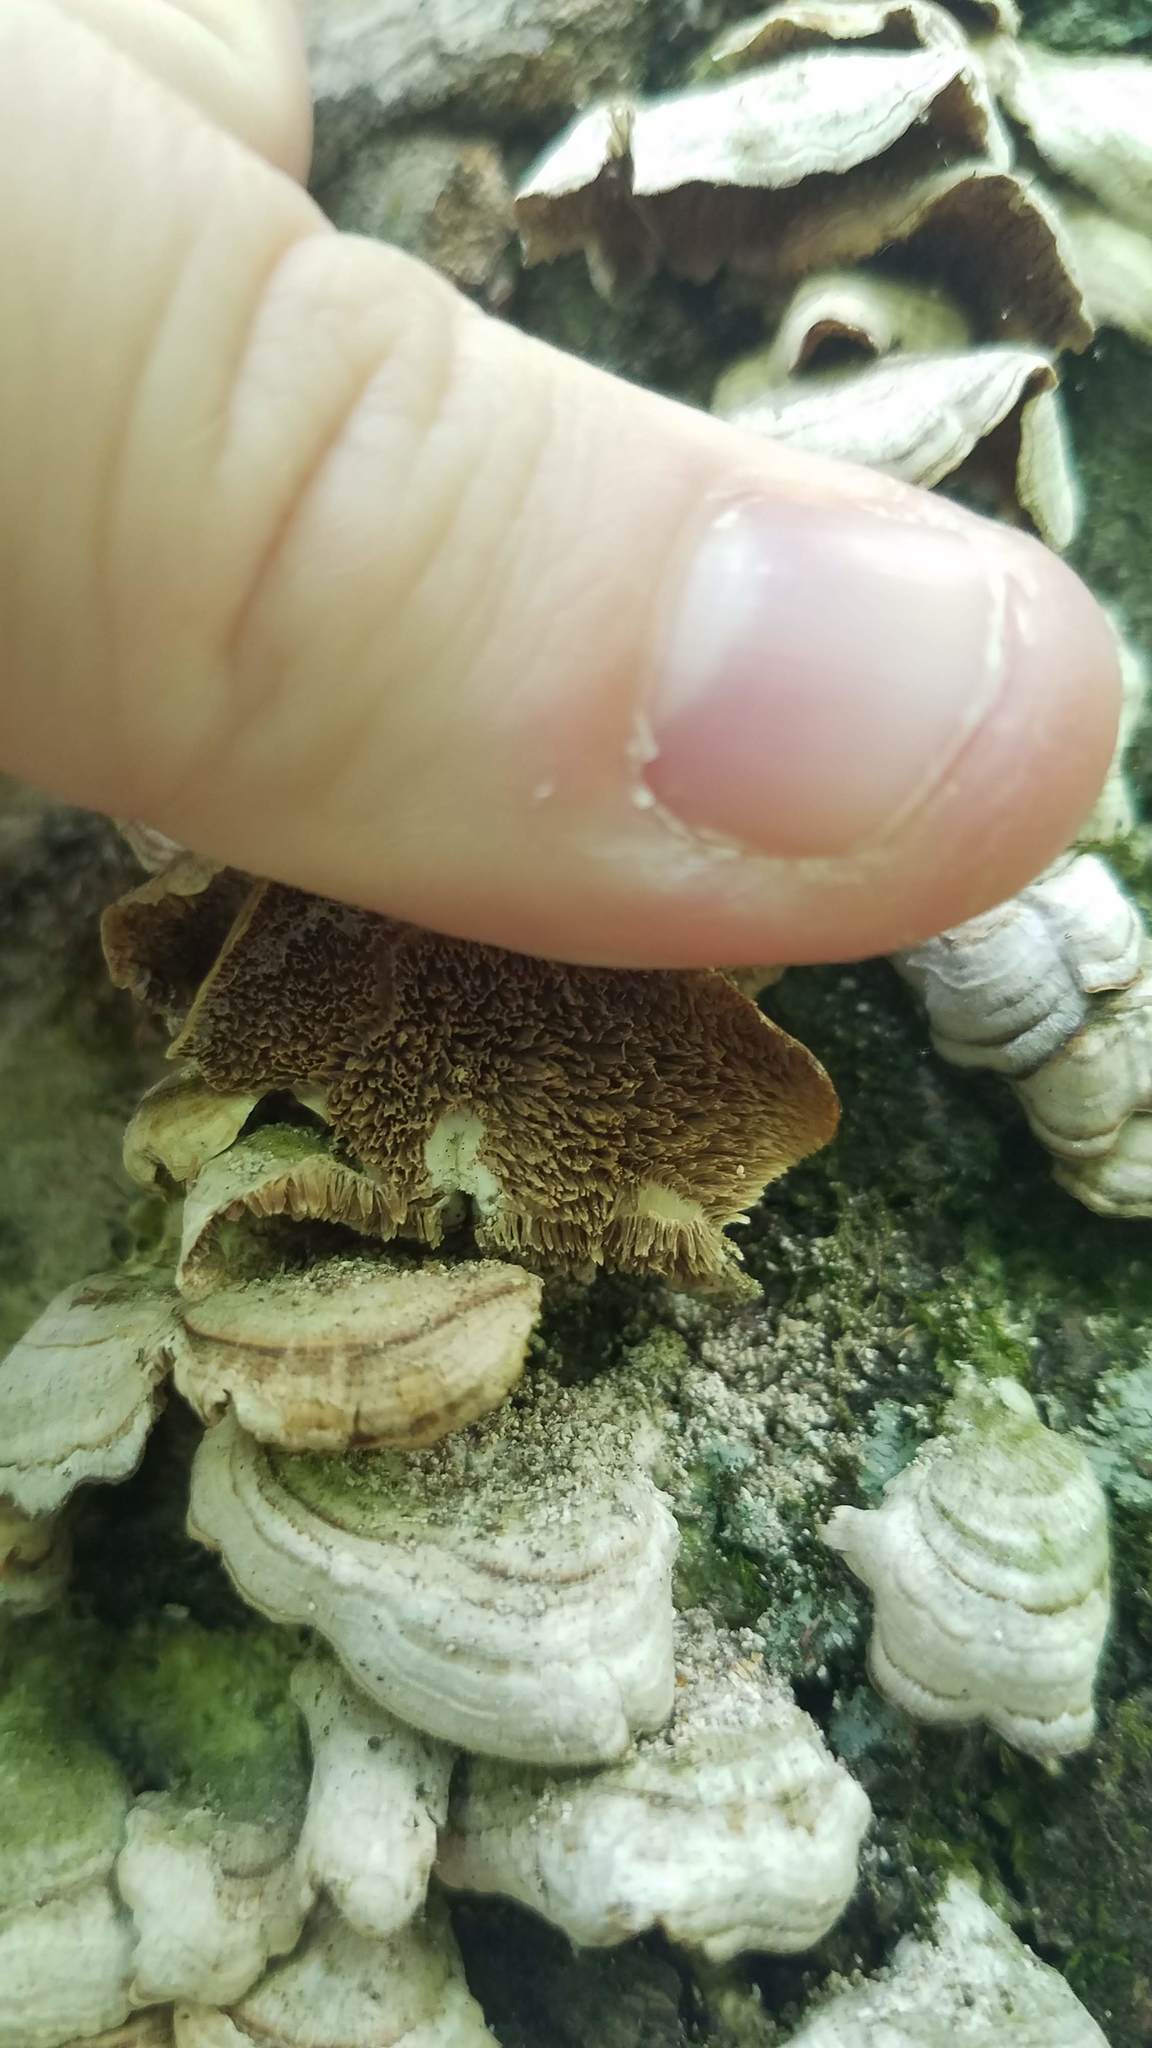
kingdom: Fungi
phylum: Basidiomycota
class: Agaricomycetes
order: Hymenochaetales
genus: Trichaptum
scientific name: Trichaptum biforme
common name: Violet-toothed polypore
